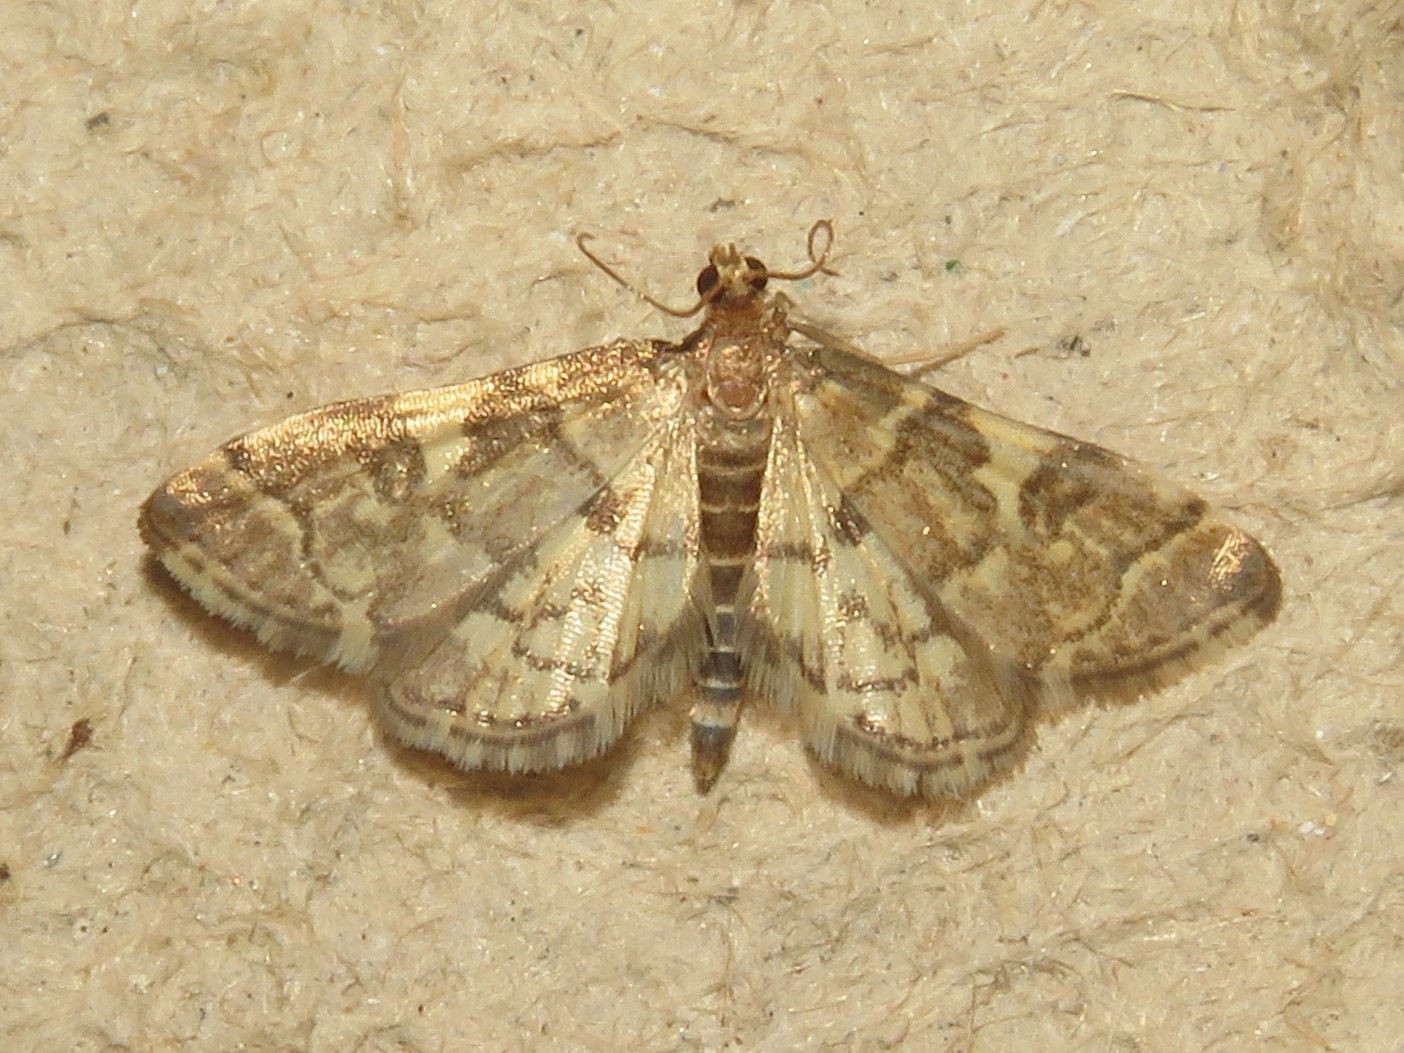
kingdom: Animalia
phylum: Arthropoda
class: Insecta
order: Lepidoptera
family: Crambidae
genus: Anageshna
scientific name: Anageshna primordialis
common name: Yellow-spotted webworm moth
